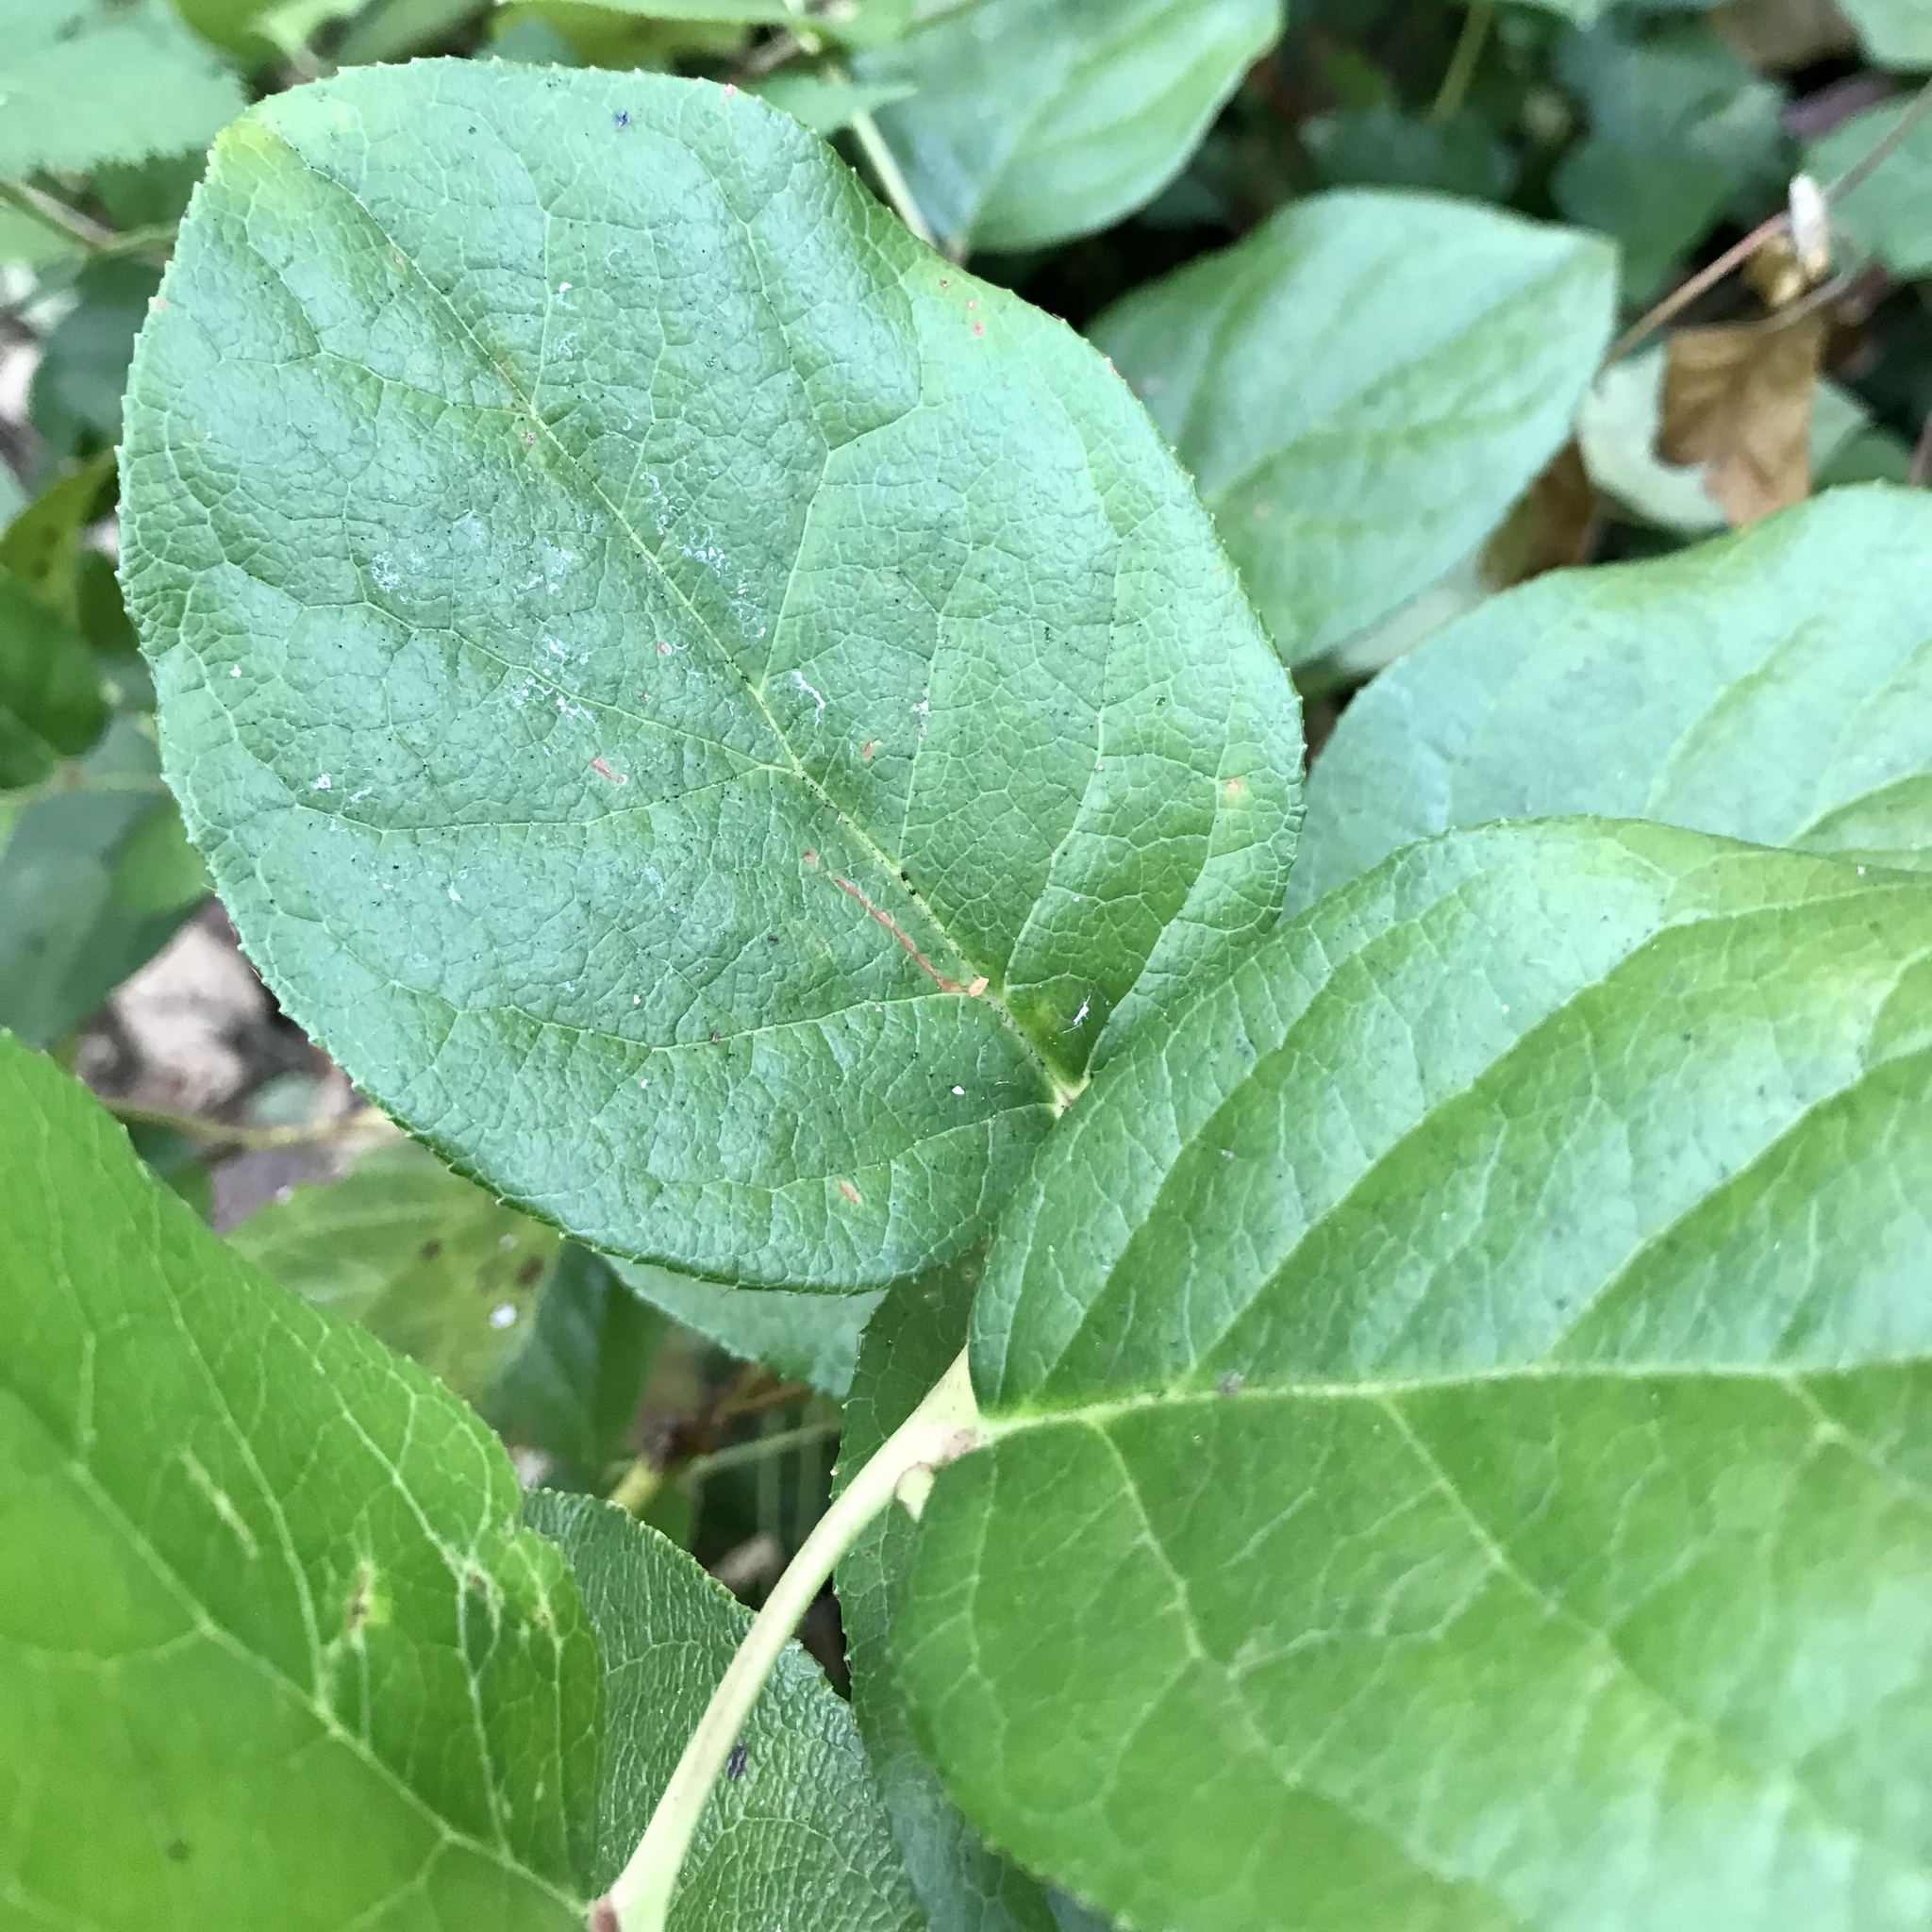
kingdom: Plantae
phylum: Tracheophyta
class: Magnoliopsida
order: Ericales
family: Ericaceae
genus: Gaultheria
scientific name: Gaultheria shallon
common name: Shallon
